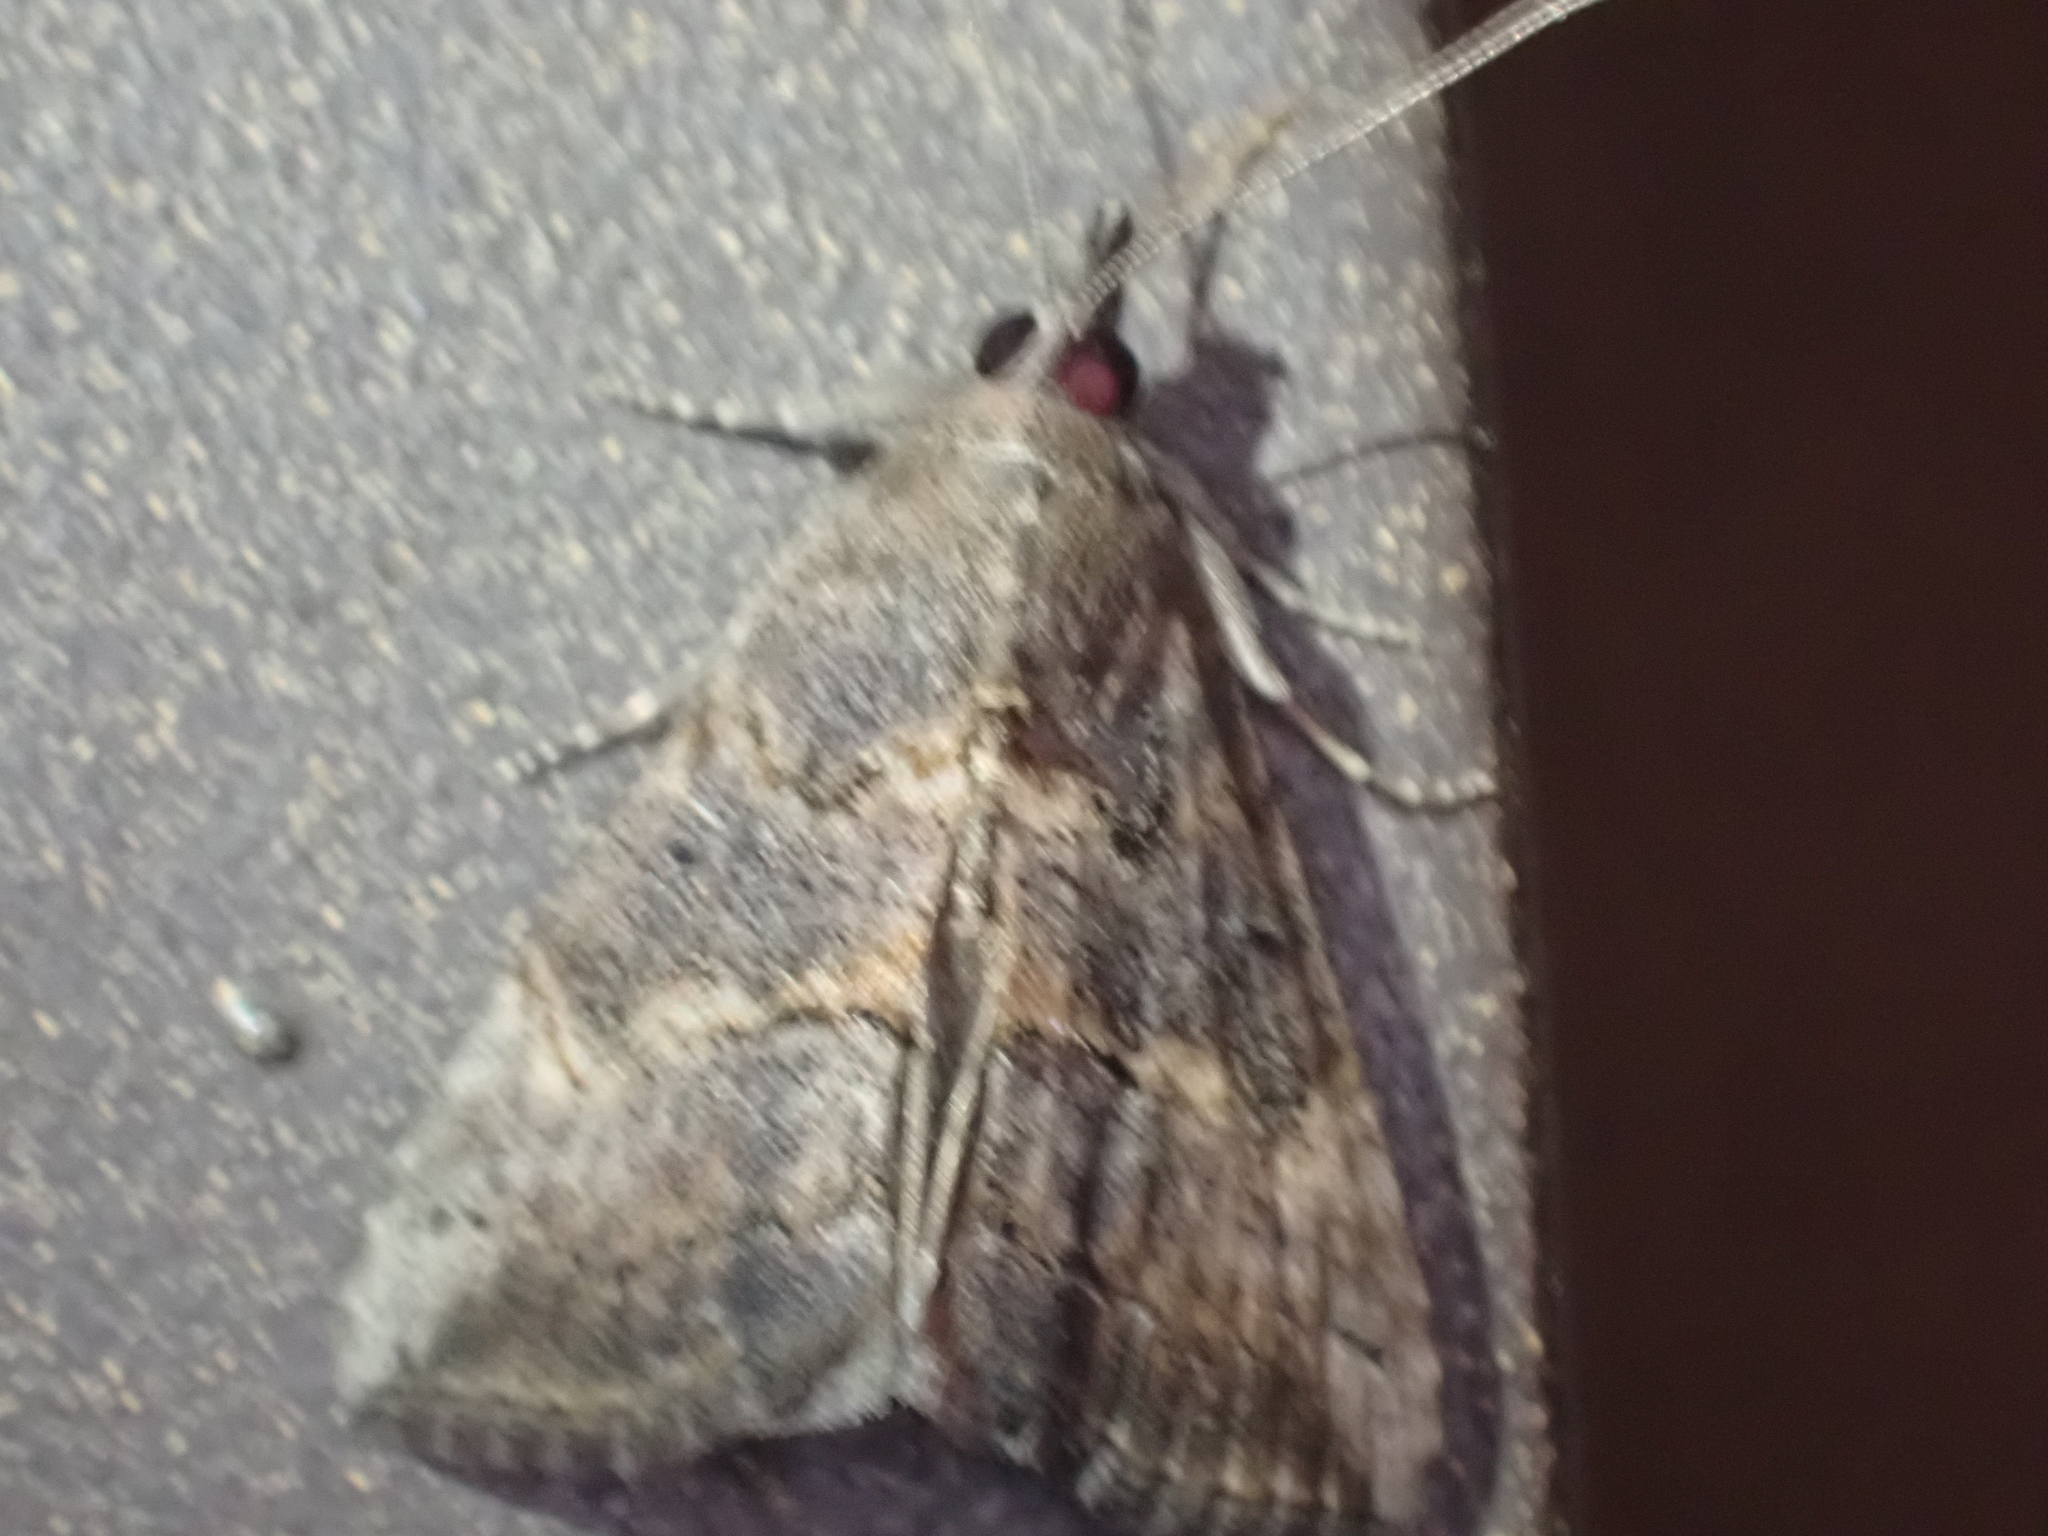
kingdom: Animalia
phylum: Arthropoda
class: Insecta
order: Lepidoptera
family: Erebidae
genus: Hypena
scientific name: Hypena scabra
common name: Green cloverworm
